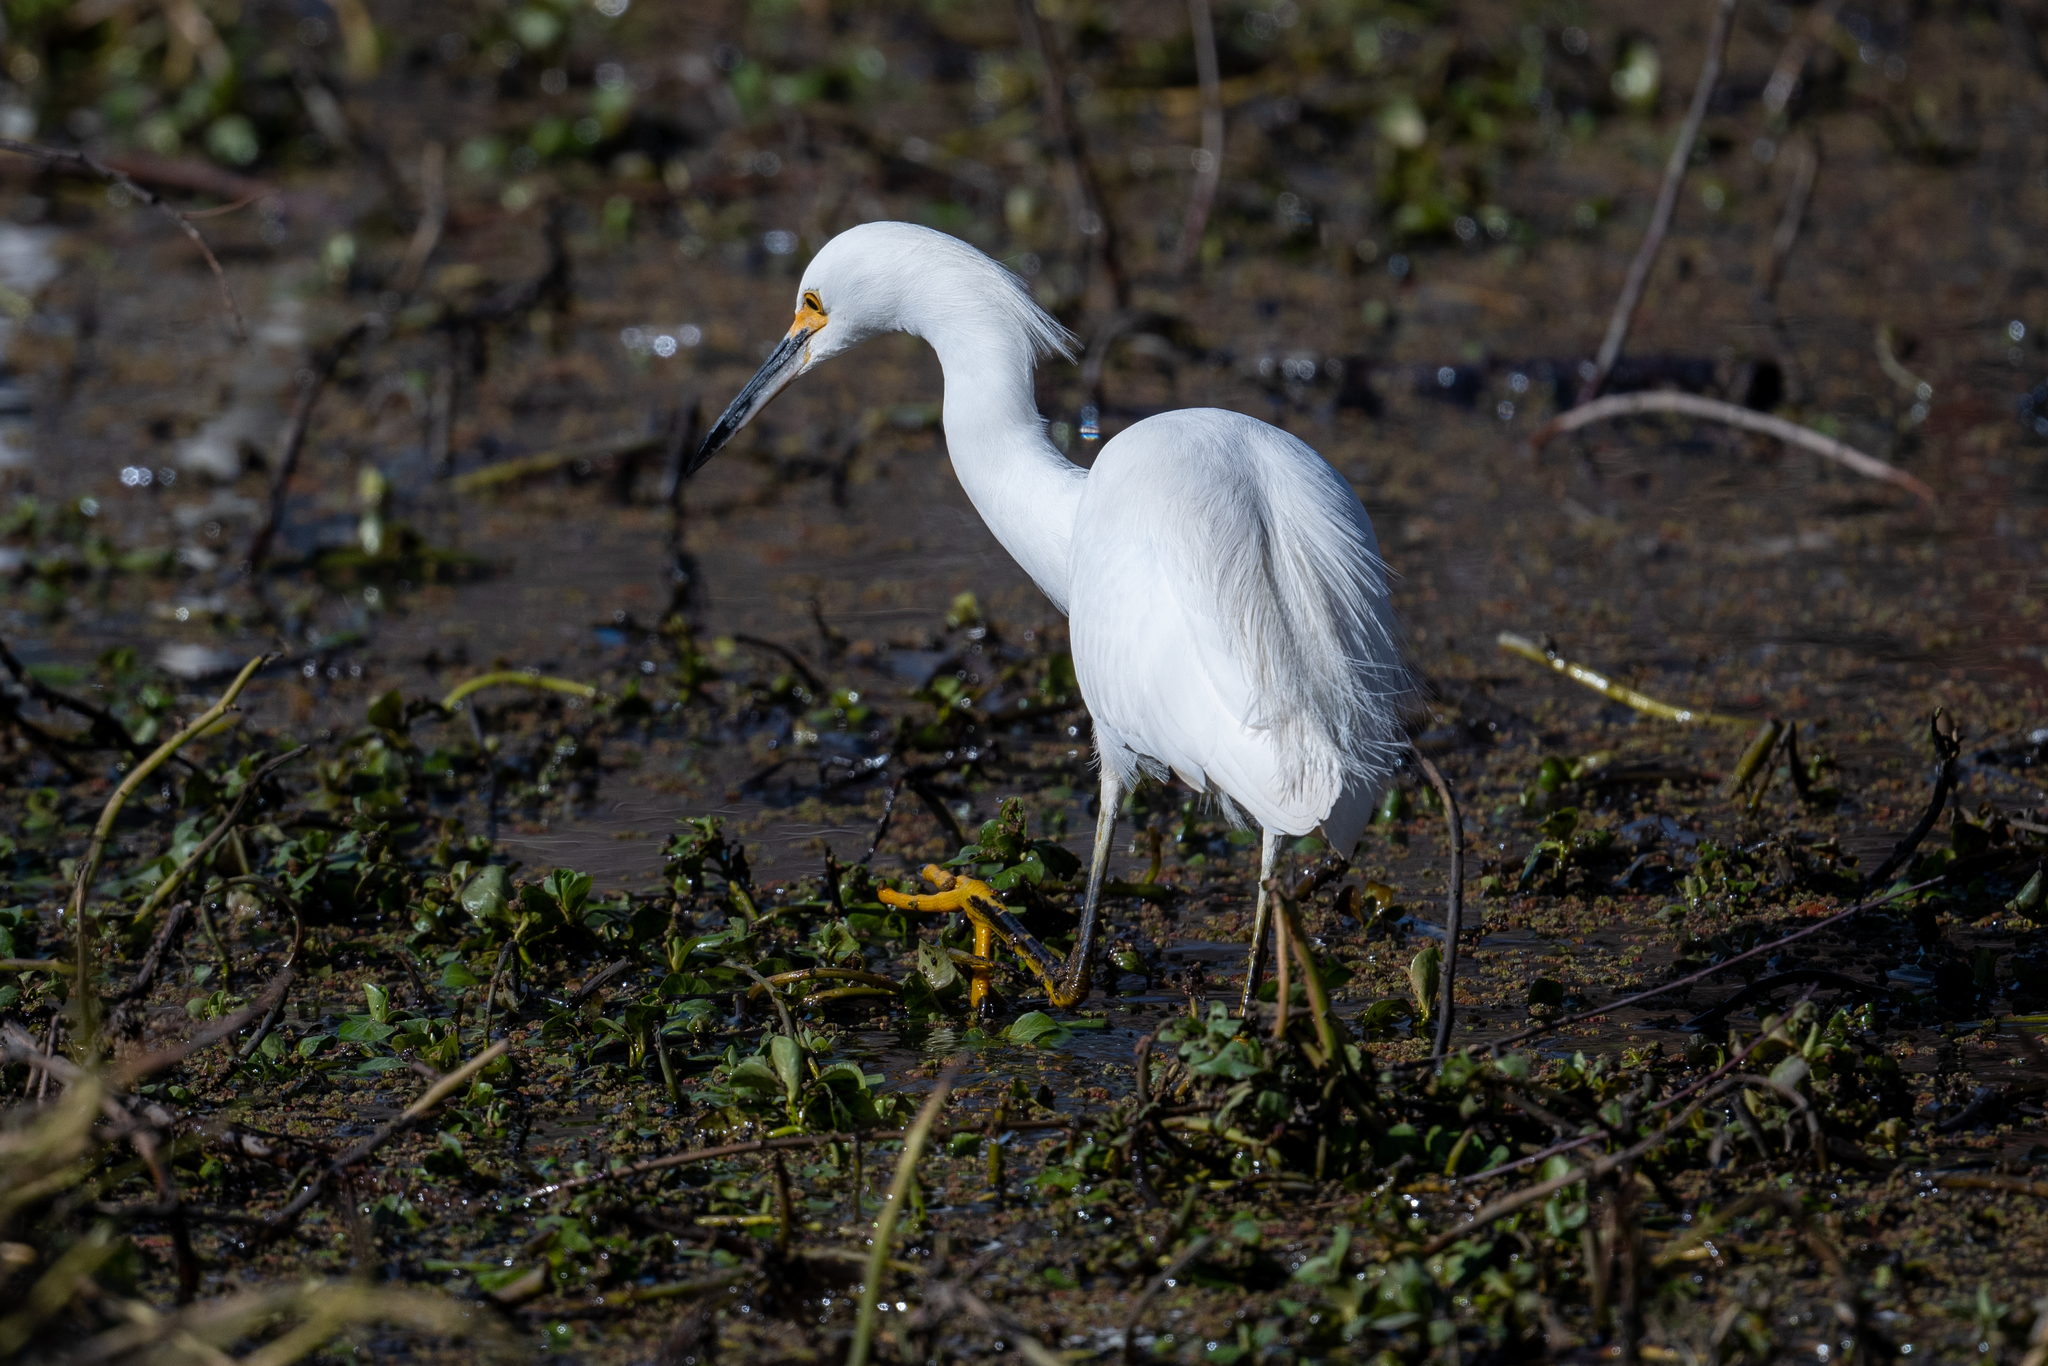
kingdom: Animalia
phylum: Chordata
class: Aves
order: Pelecaniformes
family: Ardeidae
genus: Egretta
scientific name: Egretta thula
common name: Snowy egret
